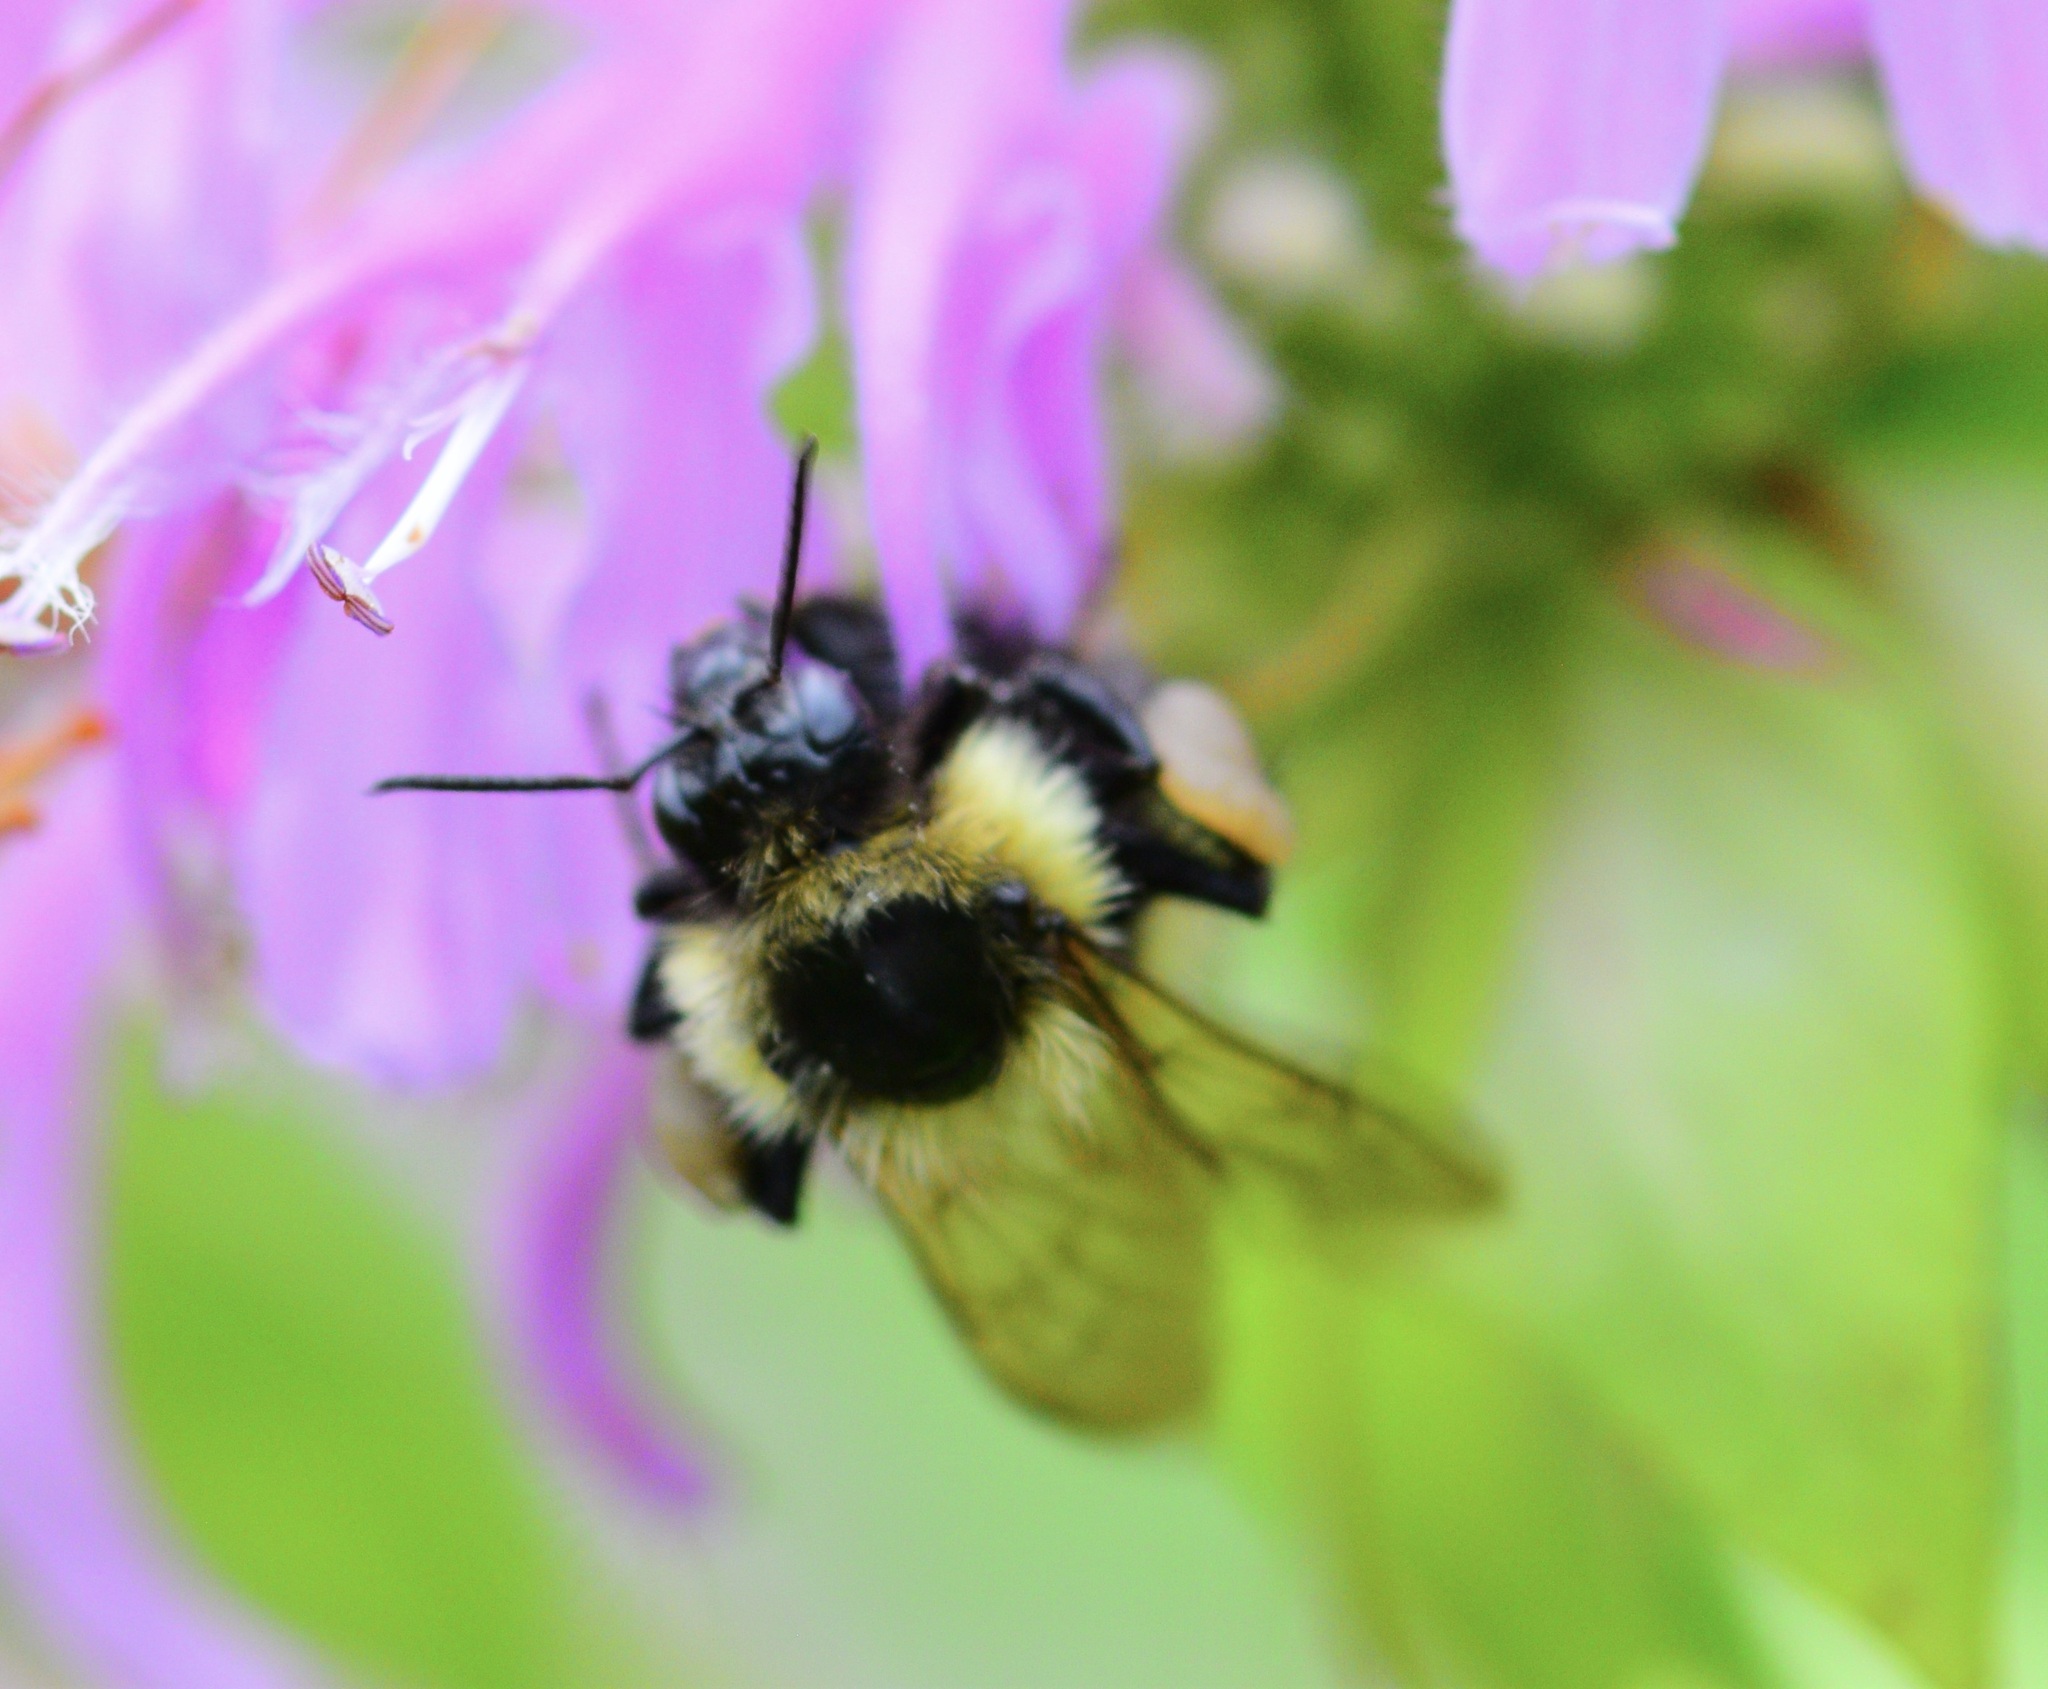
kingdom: Animalia
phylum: Arthropoda
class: Insecta
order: Hymenoptera
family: Apidae
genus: Bombus
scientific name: Bombus vagans
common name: Half-black bumble bee
